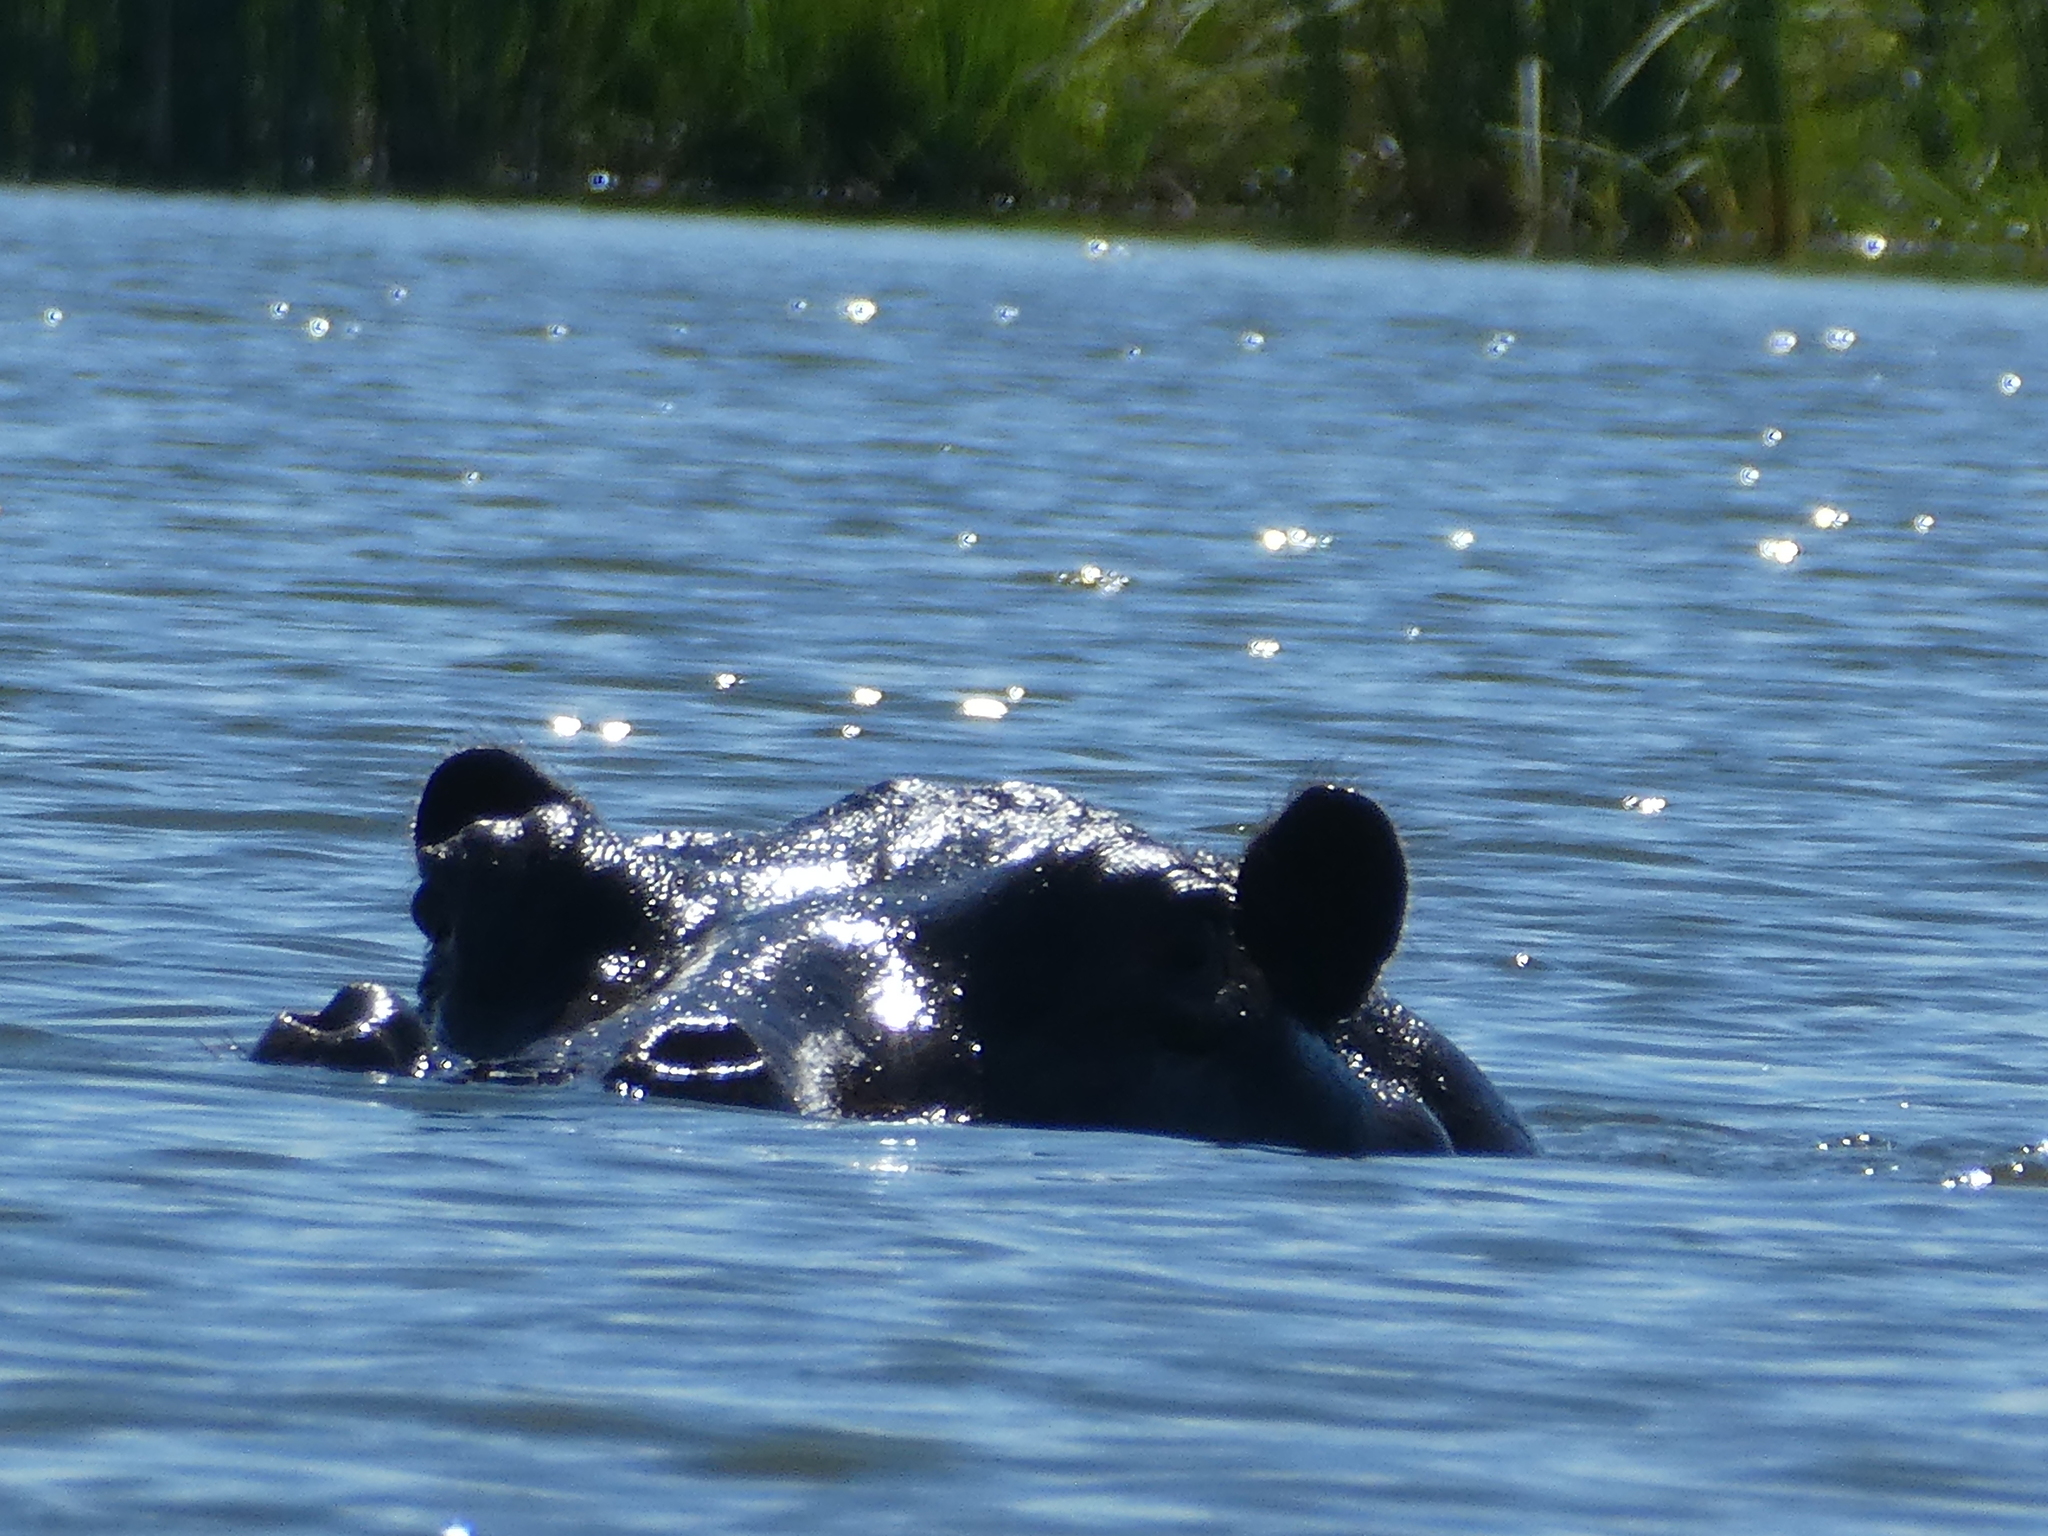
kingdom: Animalia
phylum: Chordata
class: Mammalia
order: Artiodactyla
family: Hippopotamidae
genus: Hippopotamus
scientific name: Hippopotamus amphibius
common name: Common hippopotamus
